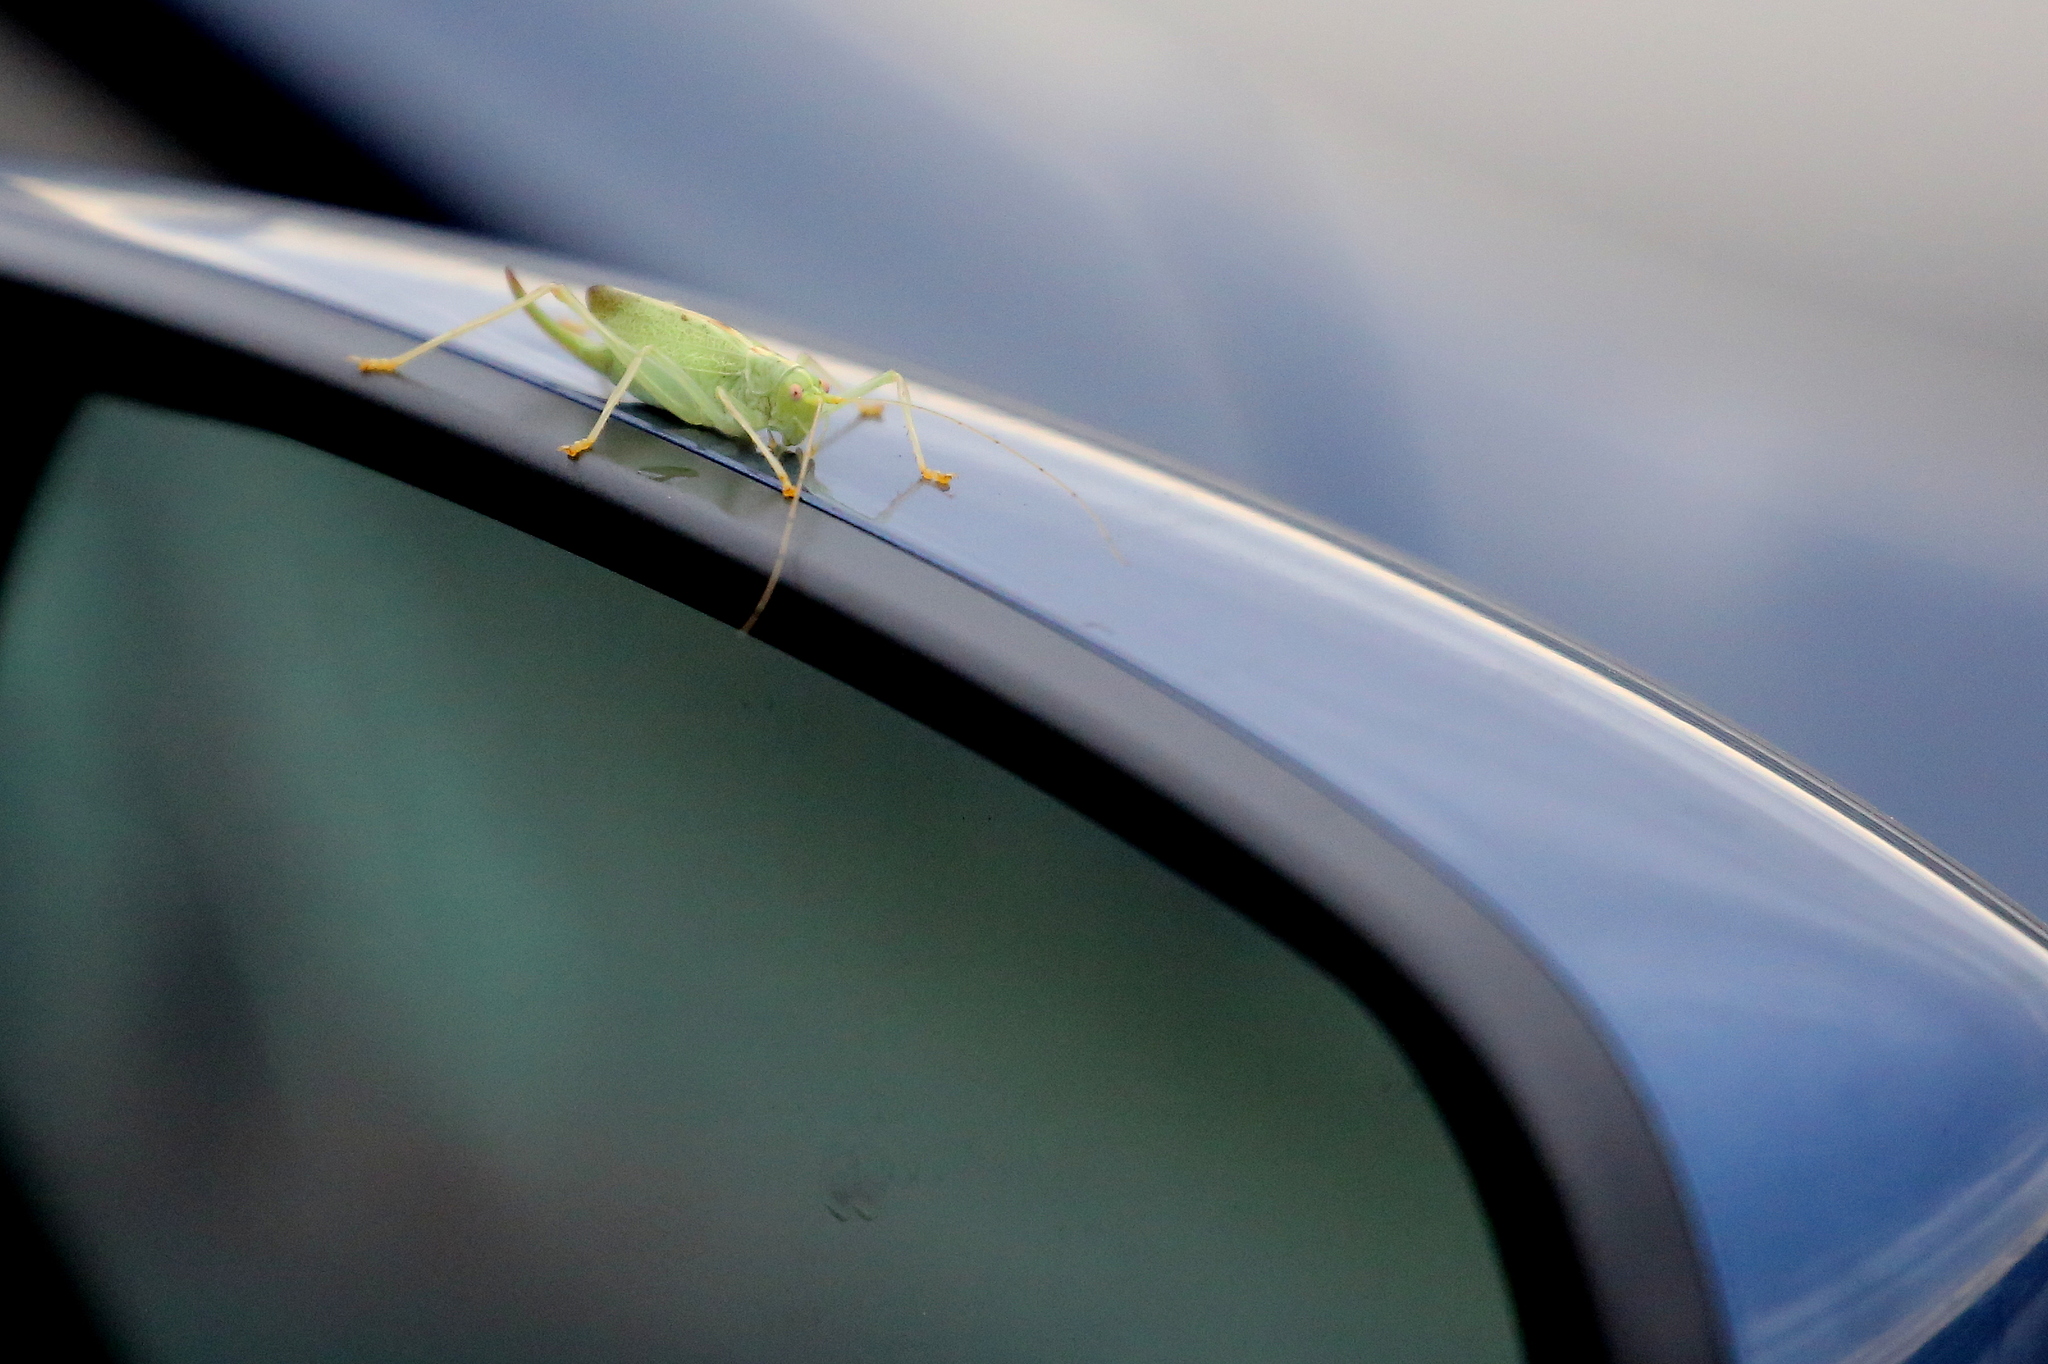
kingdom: Animalia
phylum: Arthropoda
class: Insecta
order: Orthoptera
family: Tettigoniidae
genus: Meconema
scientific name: Meconema thalassinum
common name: Oak bush-cricket
